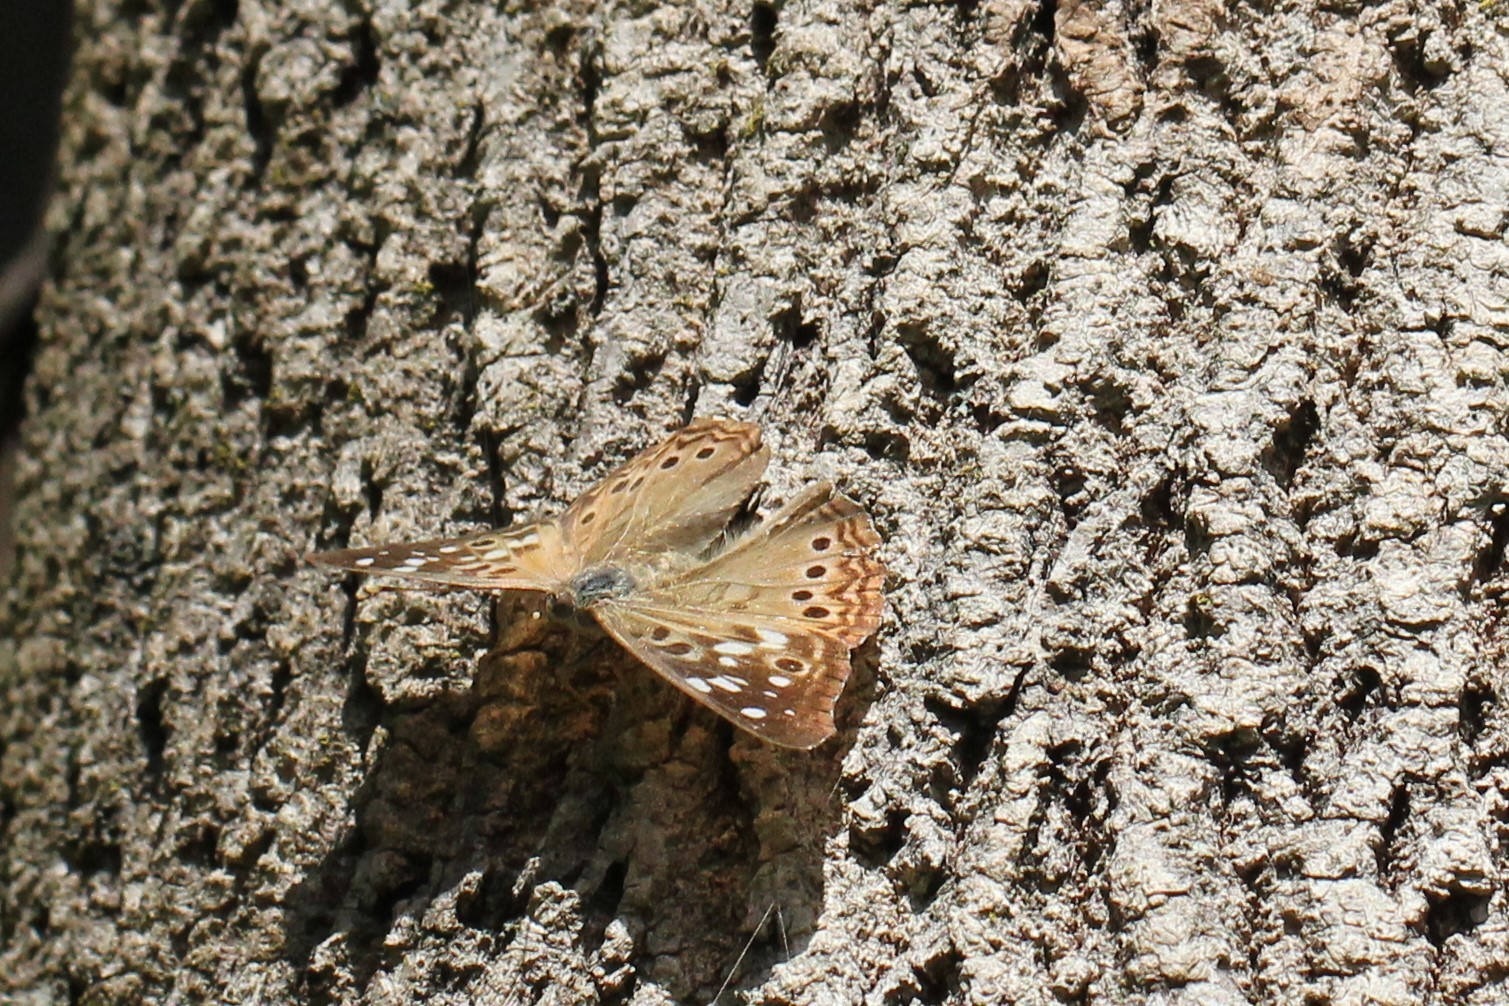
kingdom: Animalia
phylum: Arthropoda
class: Insecta
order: Lepidoptera
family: Nymphalidae
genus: Asterocampa
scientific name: Asterocampa celtis
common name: Hackberry emperor
